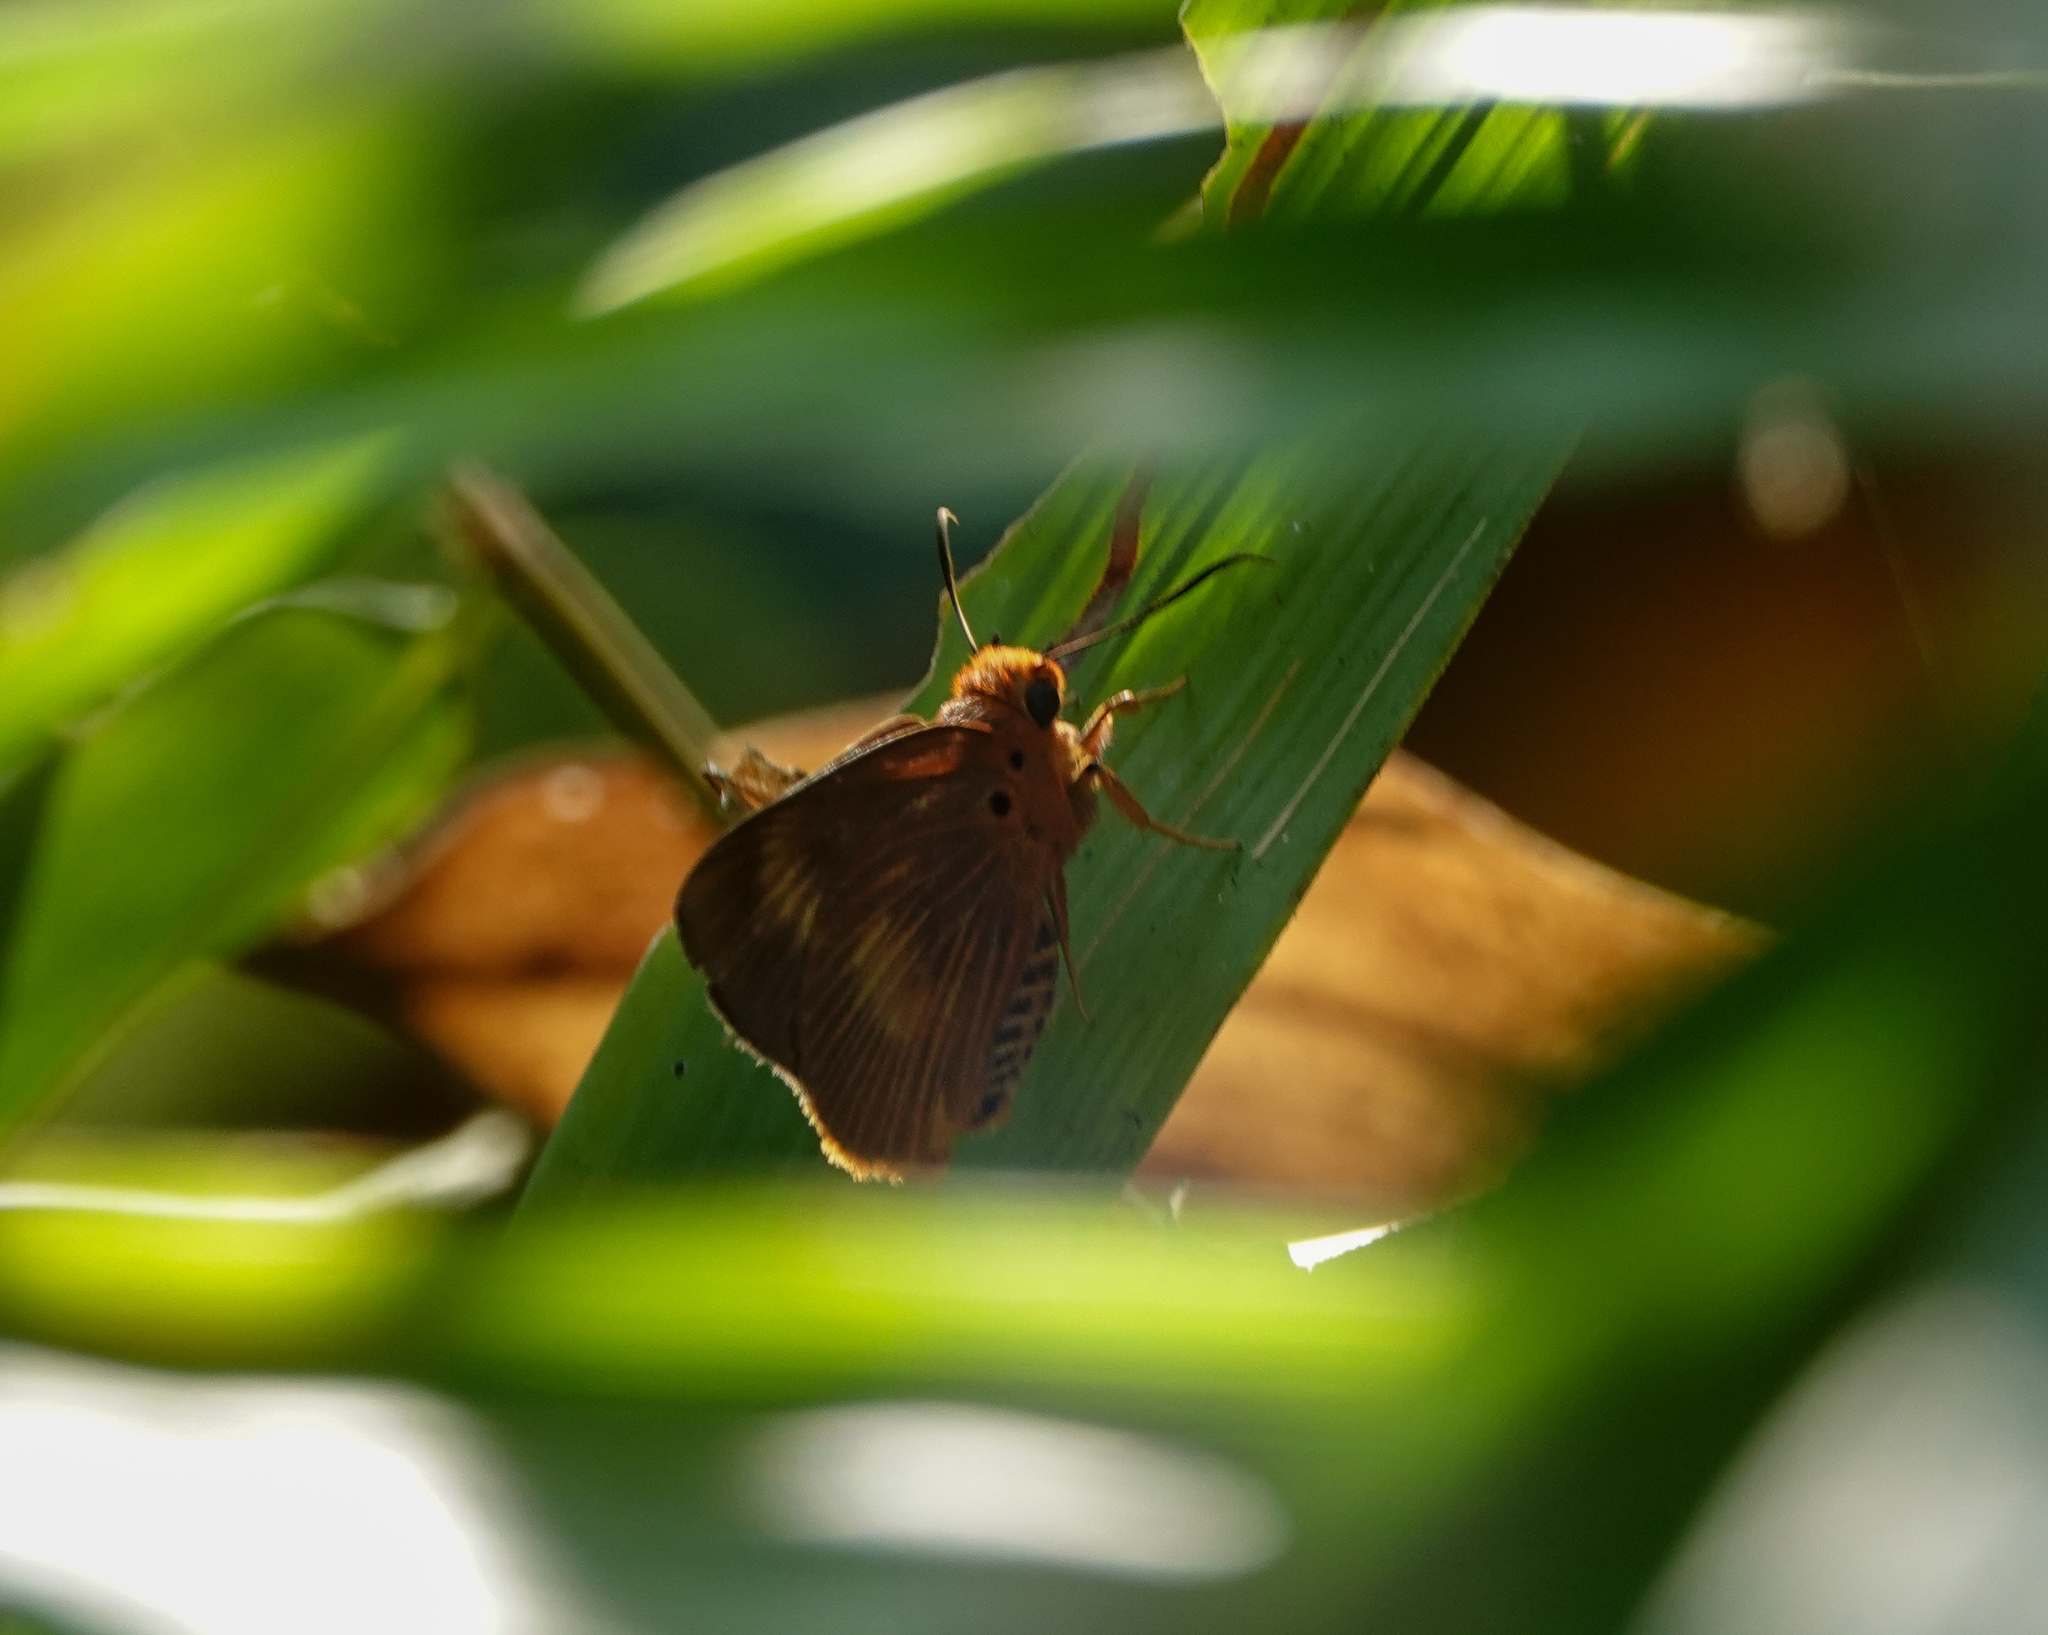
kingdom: Animalia
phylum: Arthropoda
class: Insecta
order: Lepidoptera
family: Hesperiidae
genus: Bibasis
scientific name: Bibasis harisa
